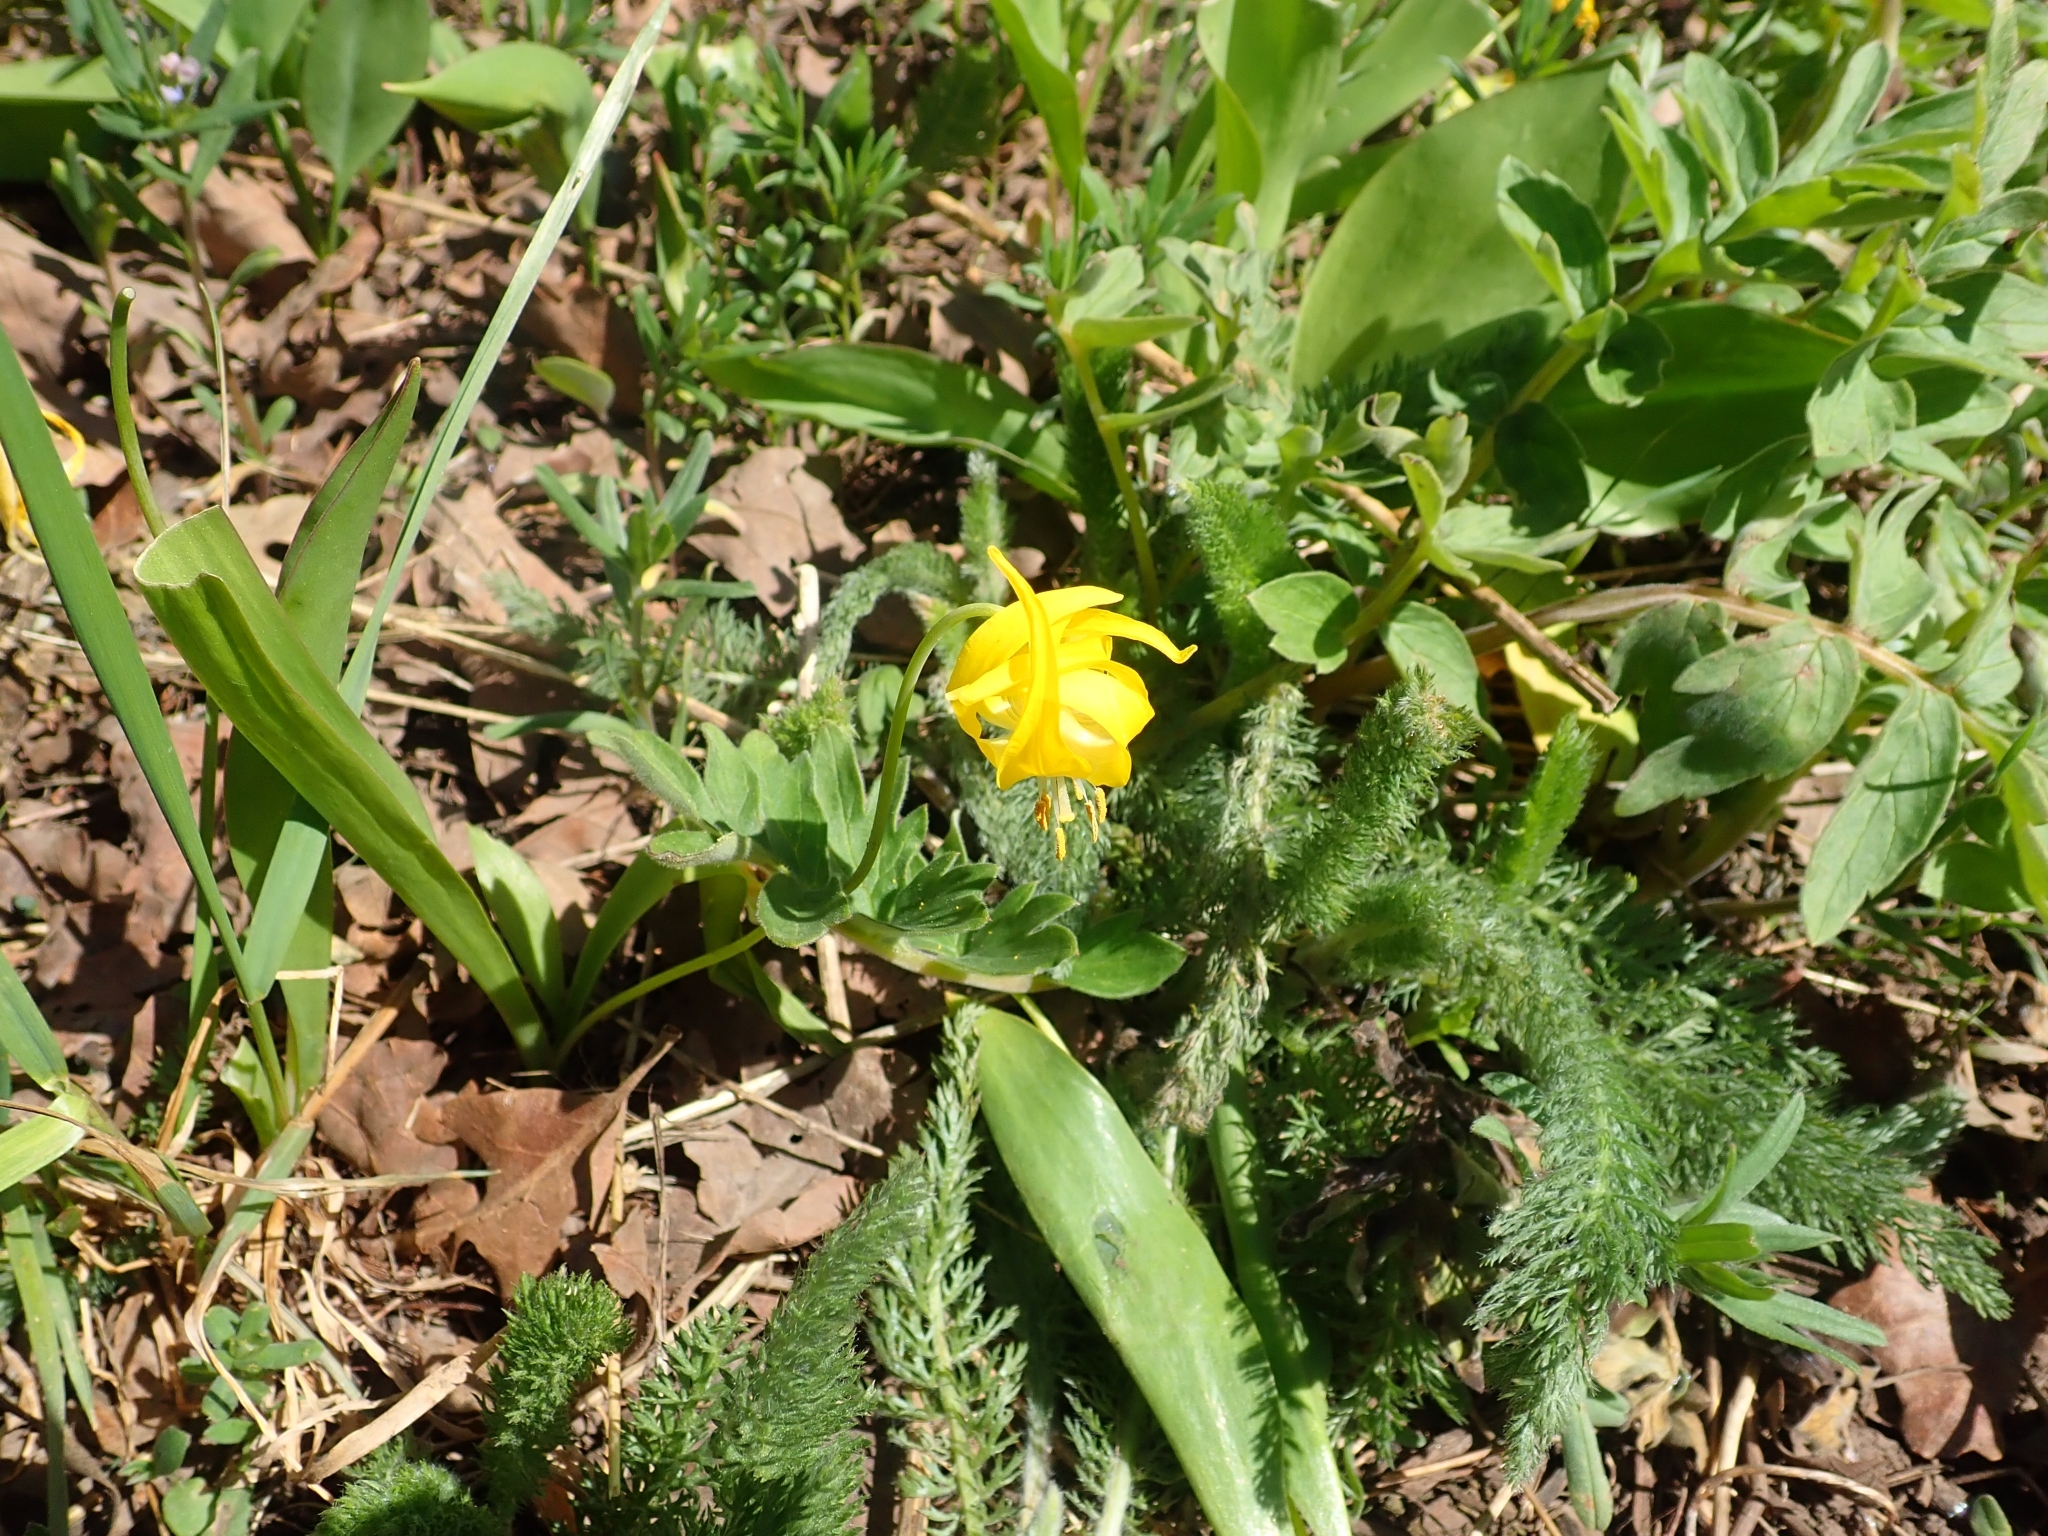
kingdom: Plantae
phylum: Tracheophyta
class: Liliopsida
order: Liliales
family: Liliaceae
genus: Erythronium
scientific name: Erythronium grandiflorum
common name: Avalanche-lily
